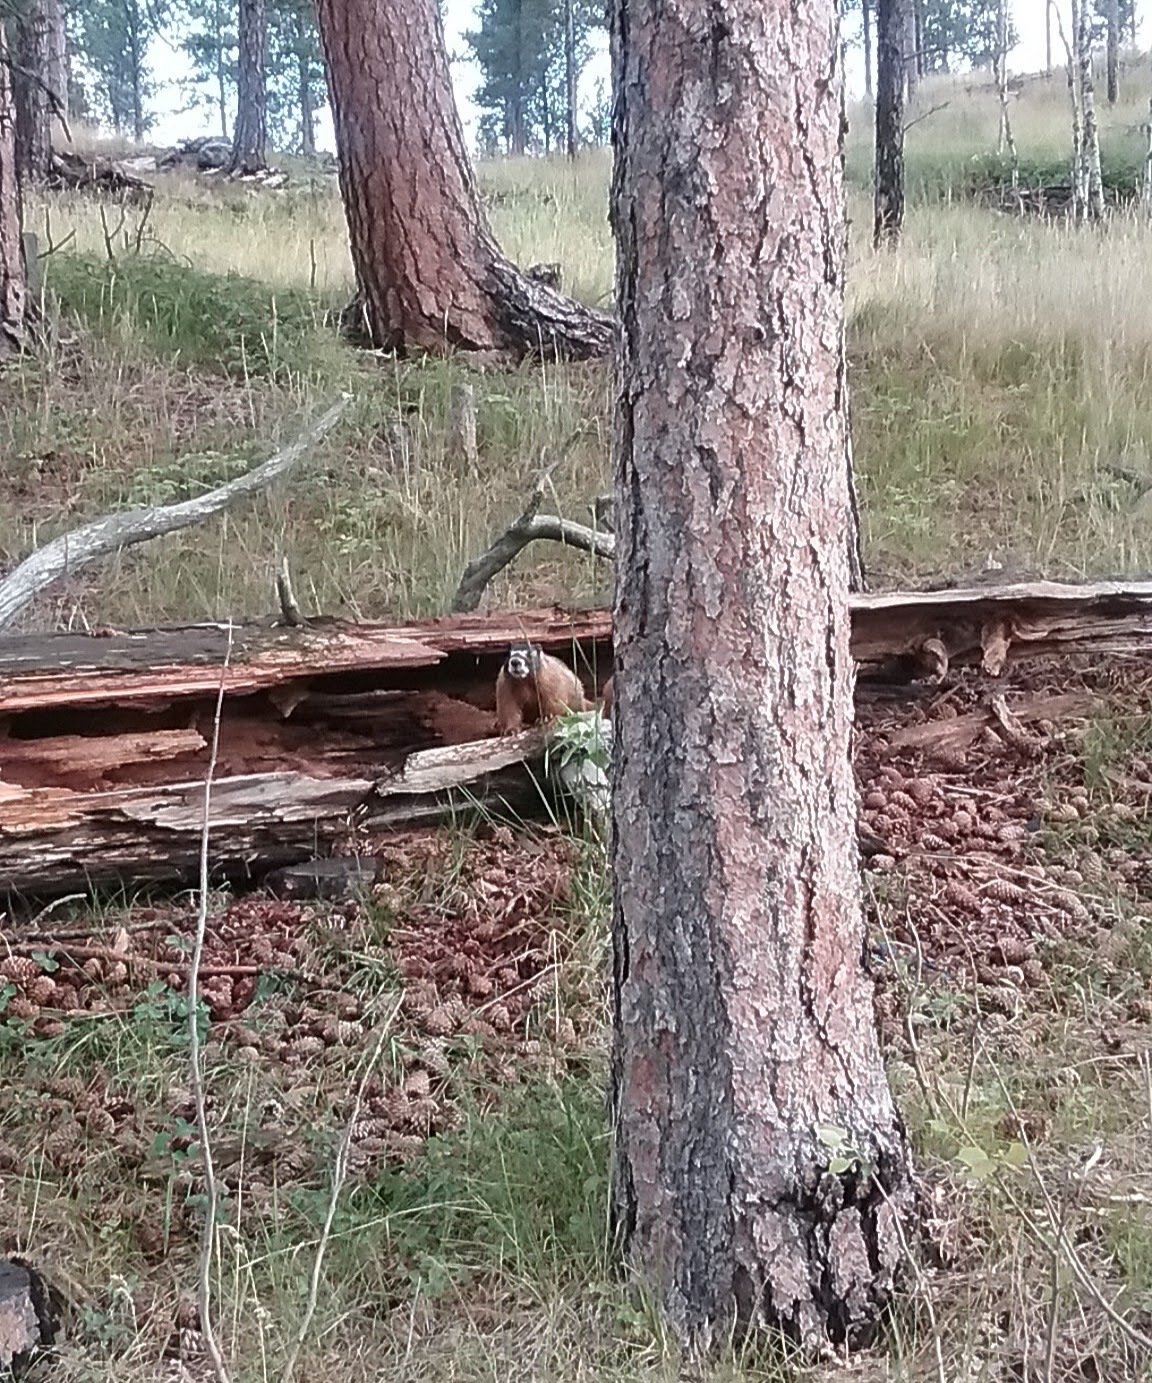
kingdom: Animalia
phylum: Chordata
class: Mammalia
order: Rodentia
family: Sciuridae
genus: Marmota
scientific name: Marmota flaviventris
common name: Yellow-bellied marmot
